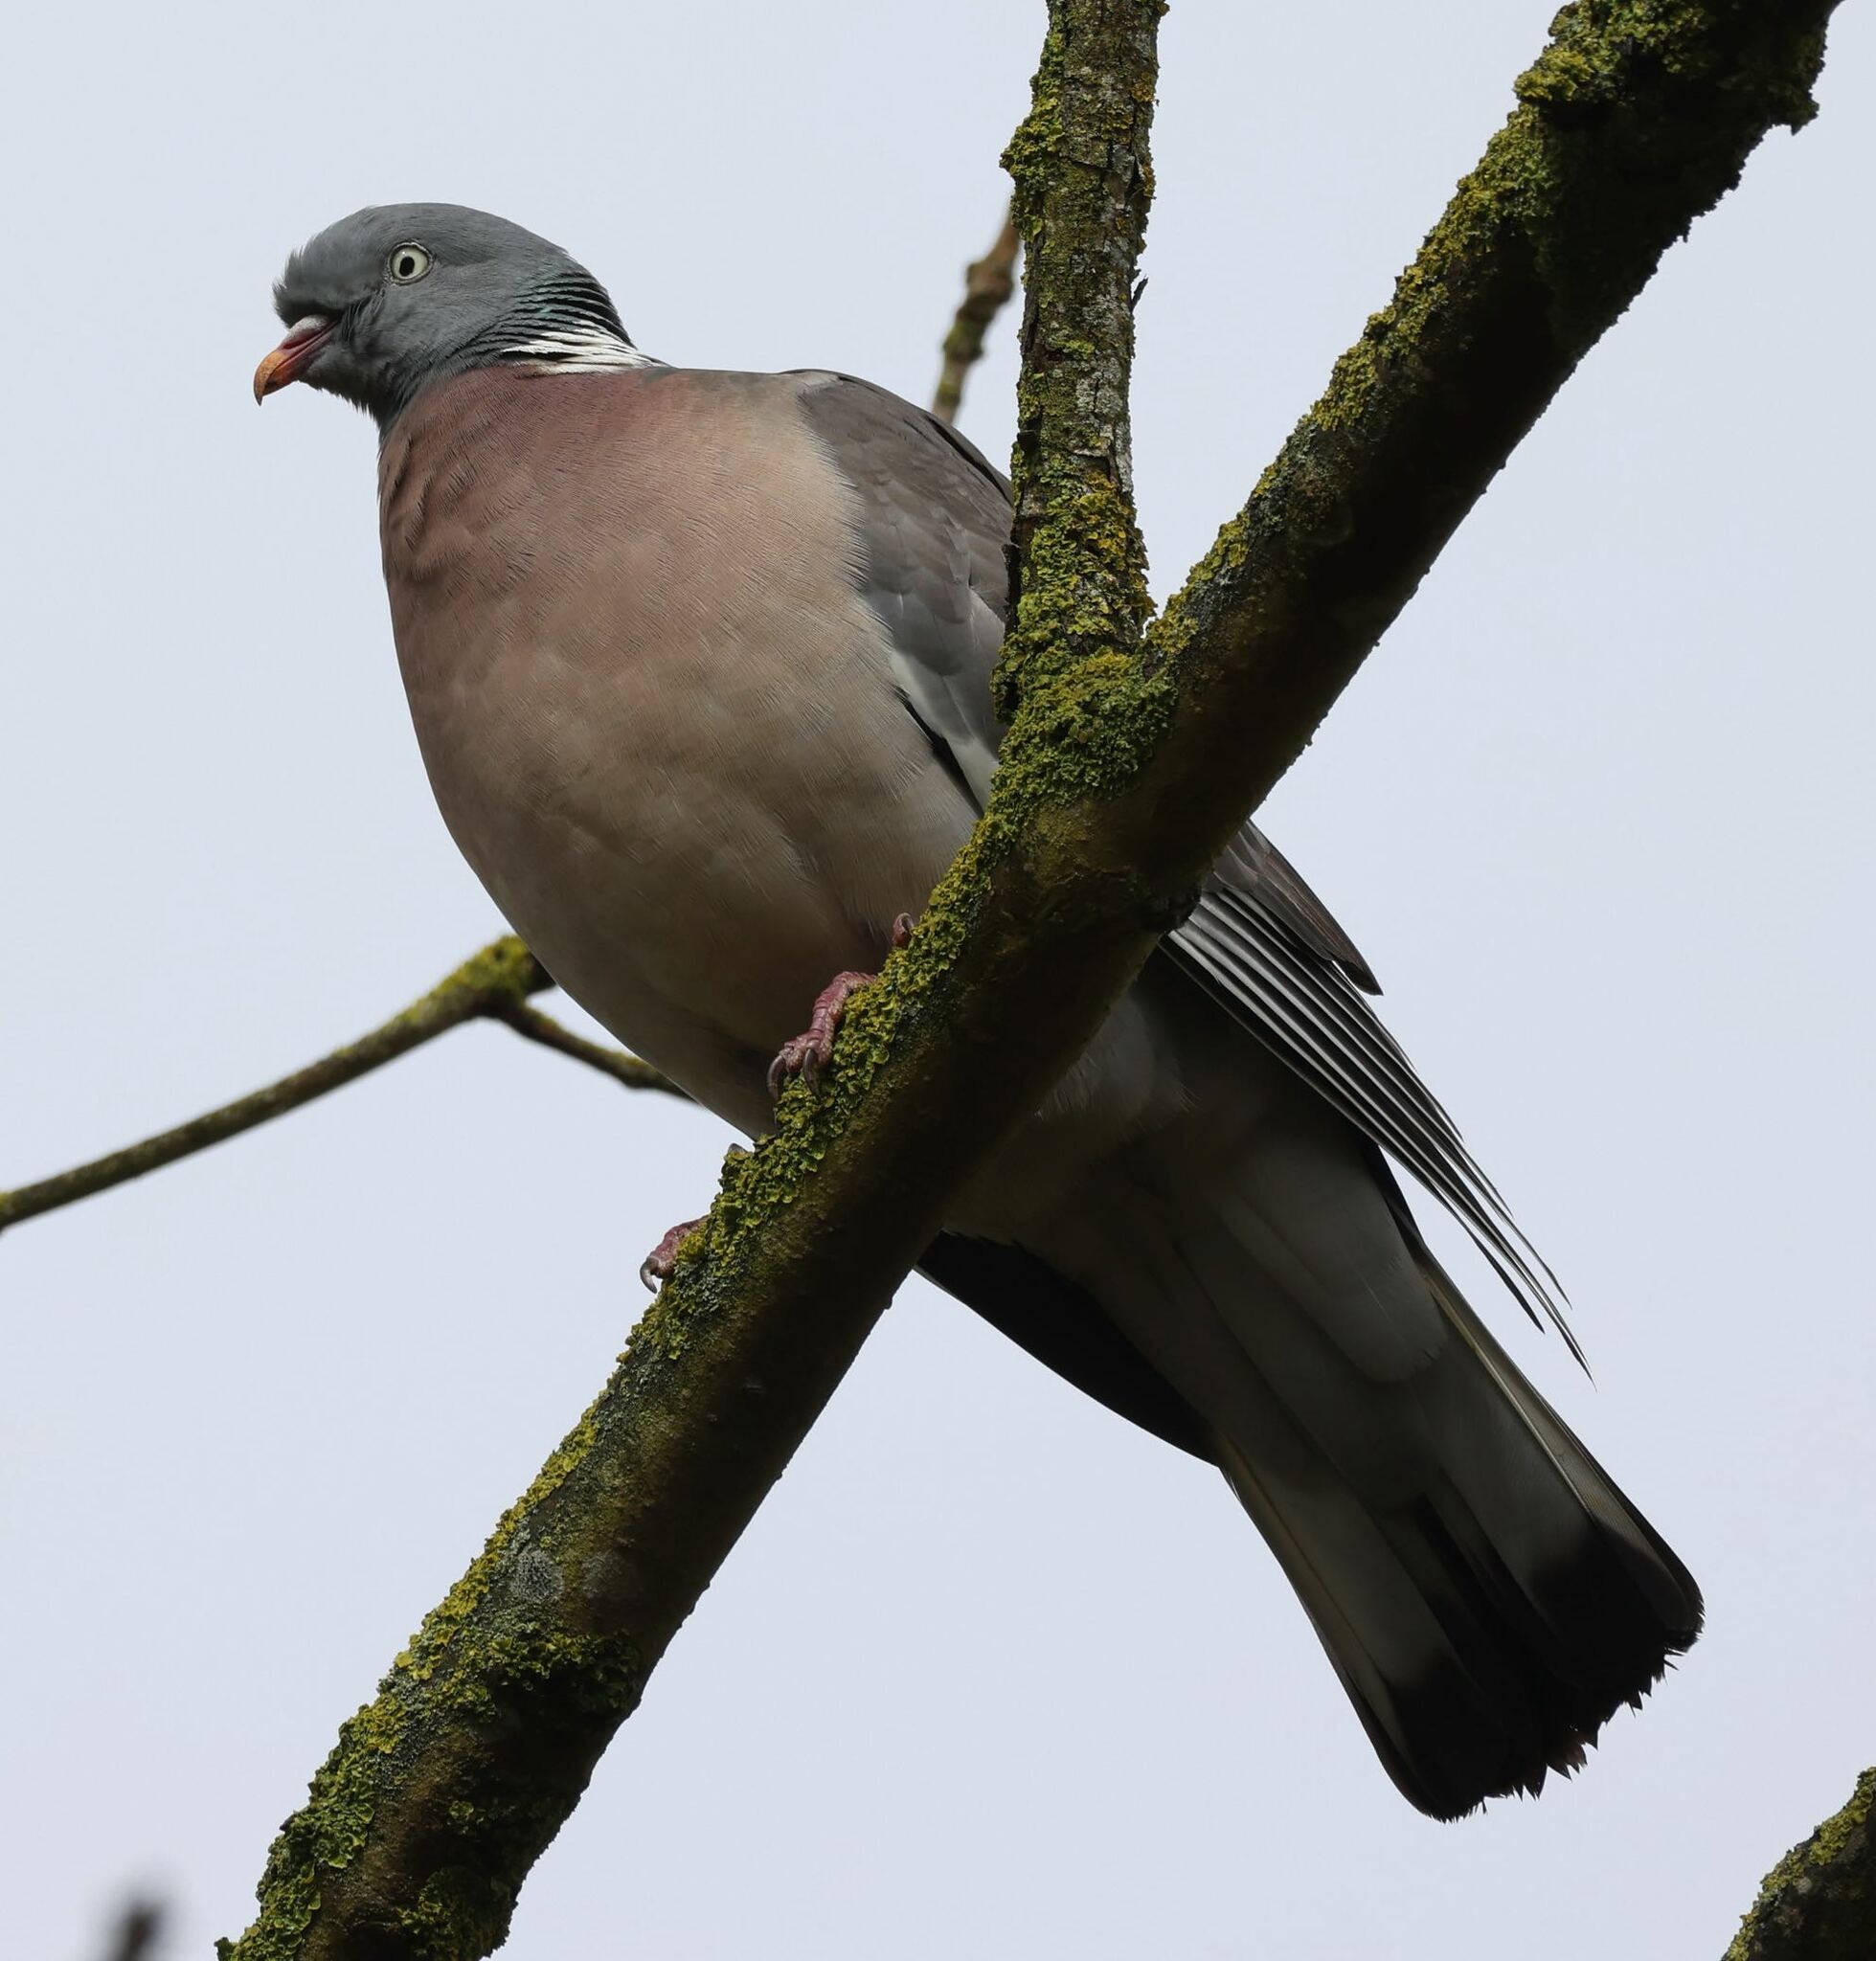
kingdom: Animalia
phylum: Chordata
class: Aves
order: Columbiformes
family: Columbidae
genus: Columba
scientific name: Columba palumbus
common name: Common wood pigeon
